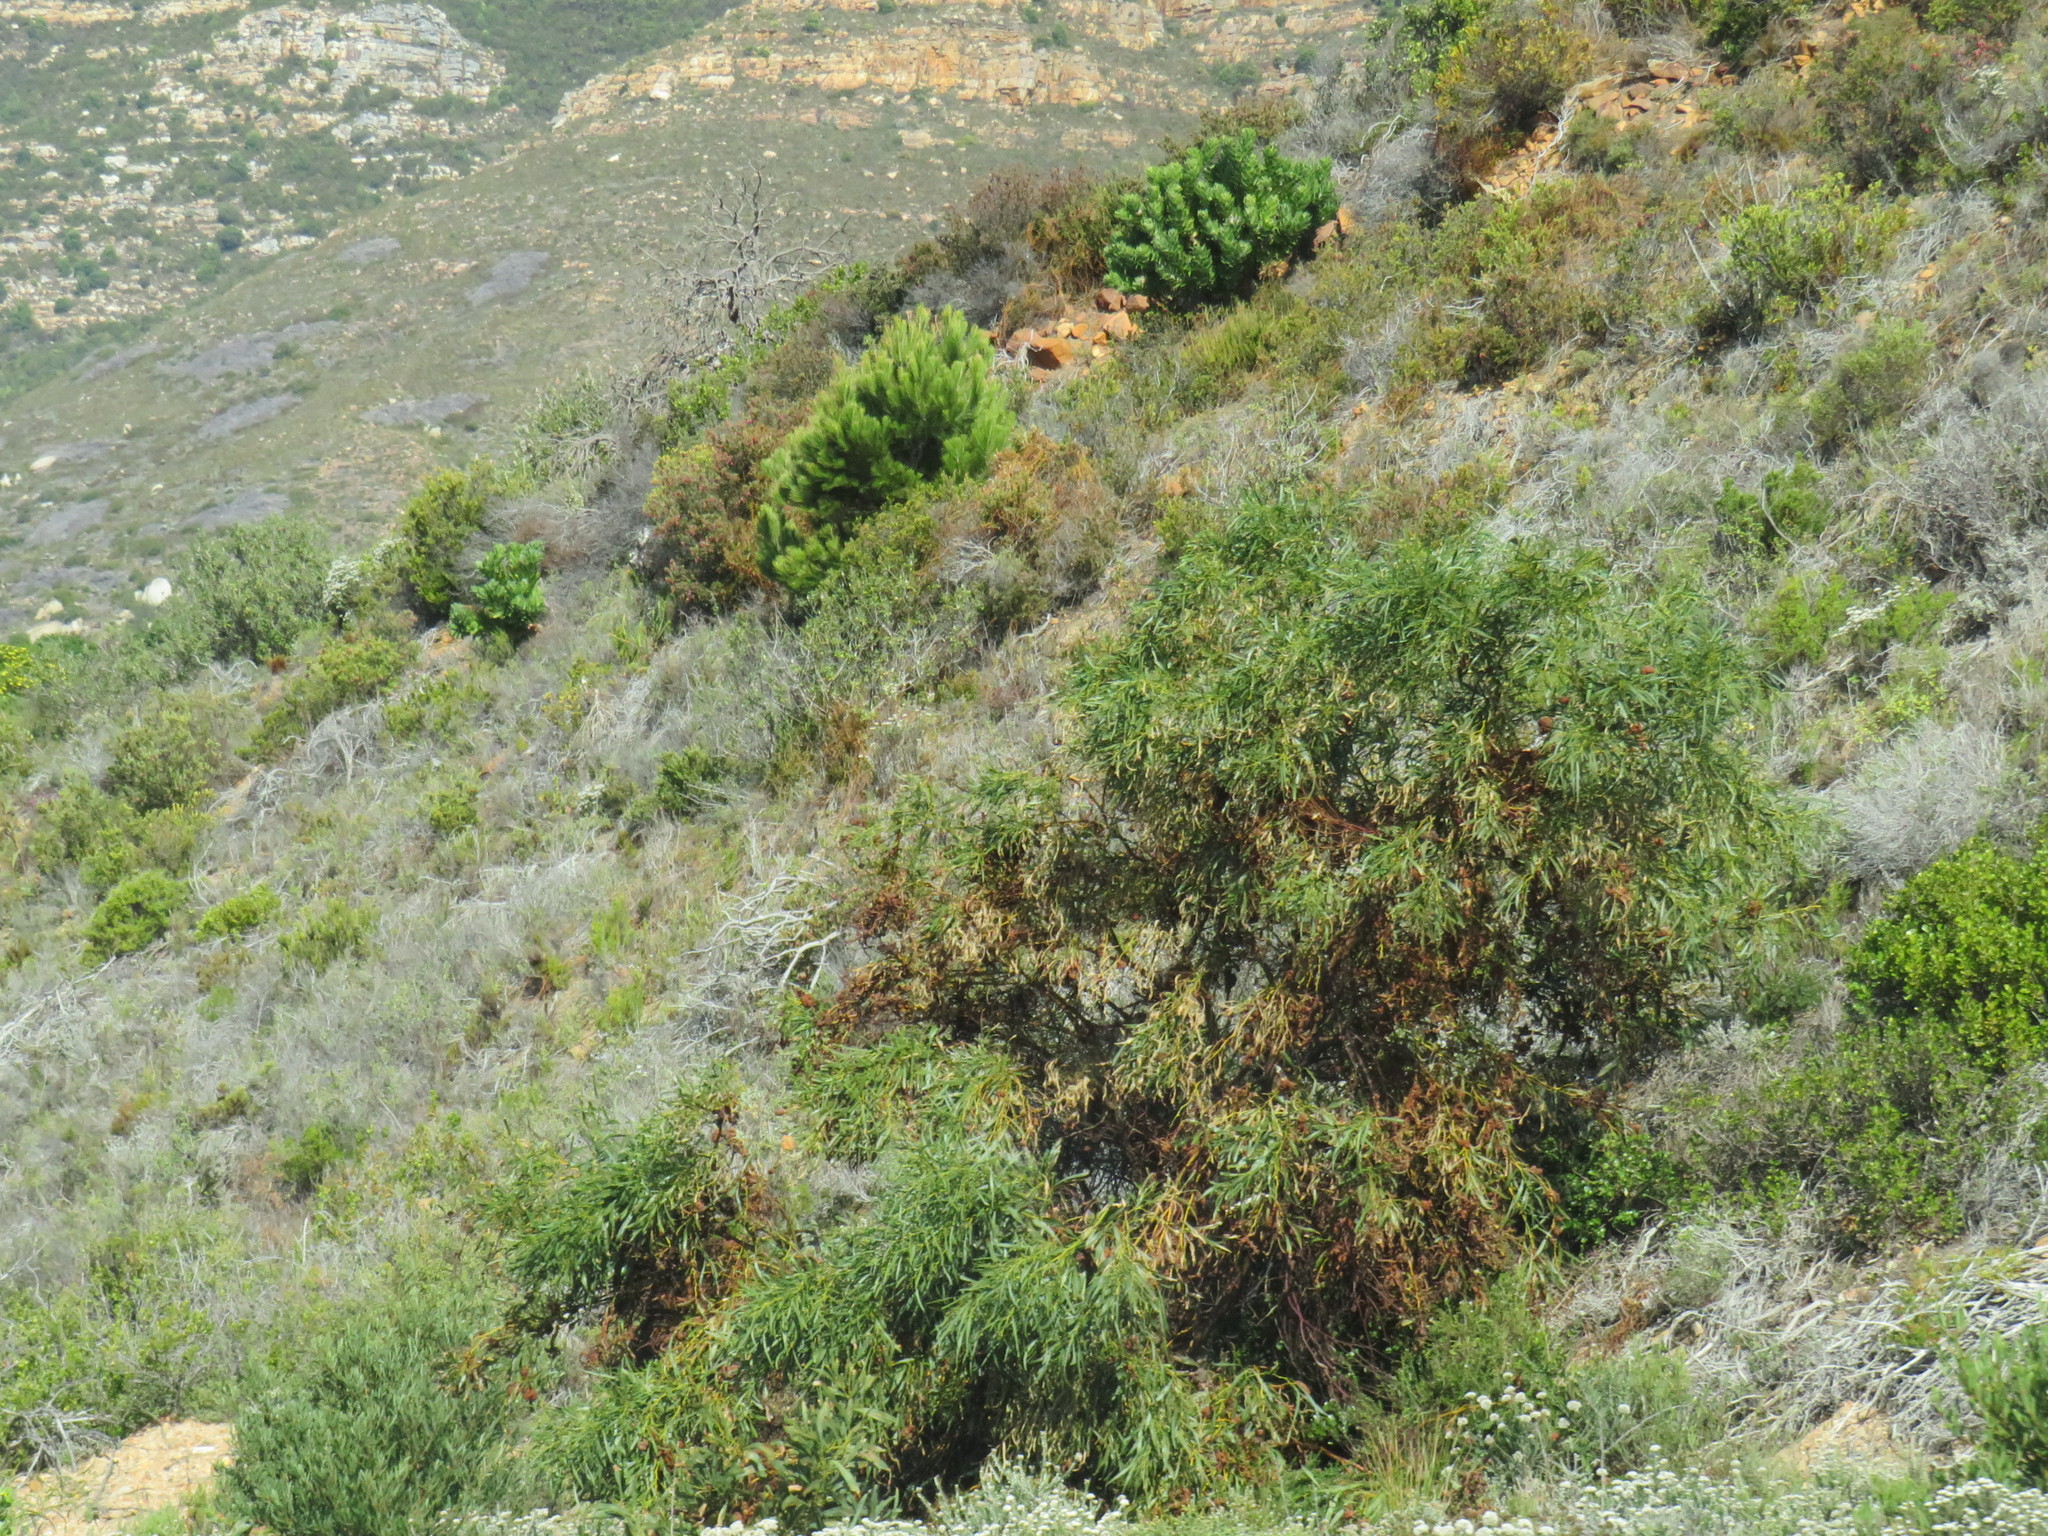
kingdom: Plantae
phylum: Tracheophyta
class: Magnoliopsida
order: Fabales
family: Fabaceae
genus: Acacia
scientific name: Acacia saligna
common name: Orange wattle
